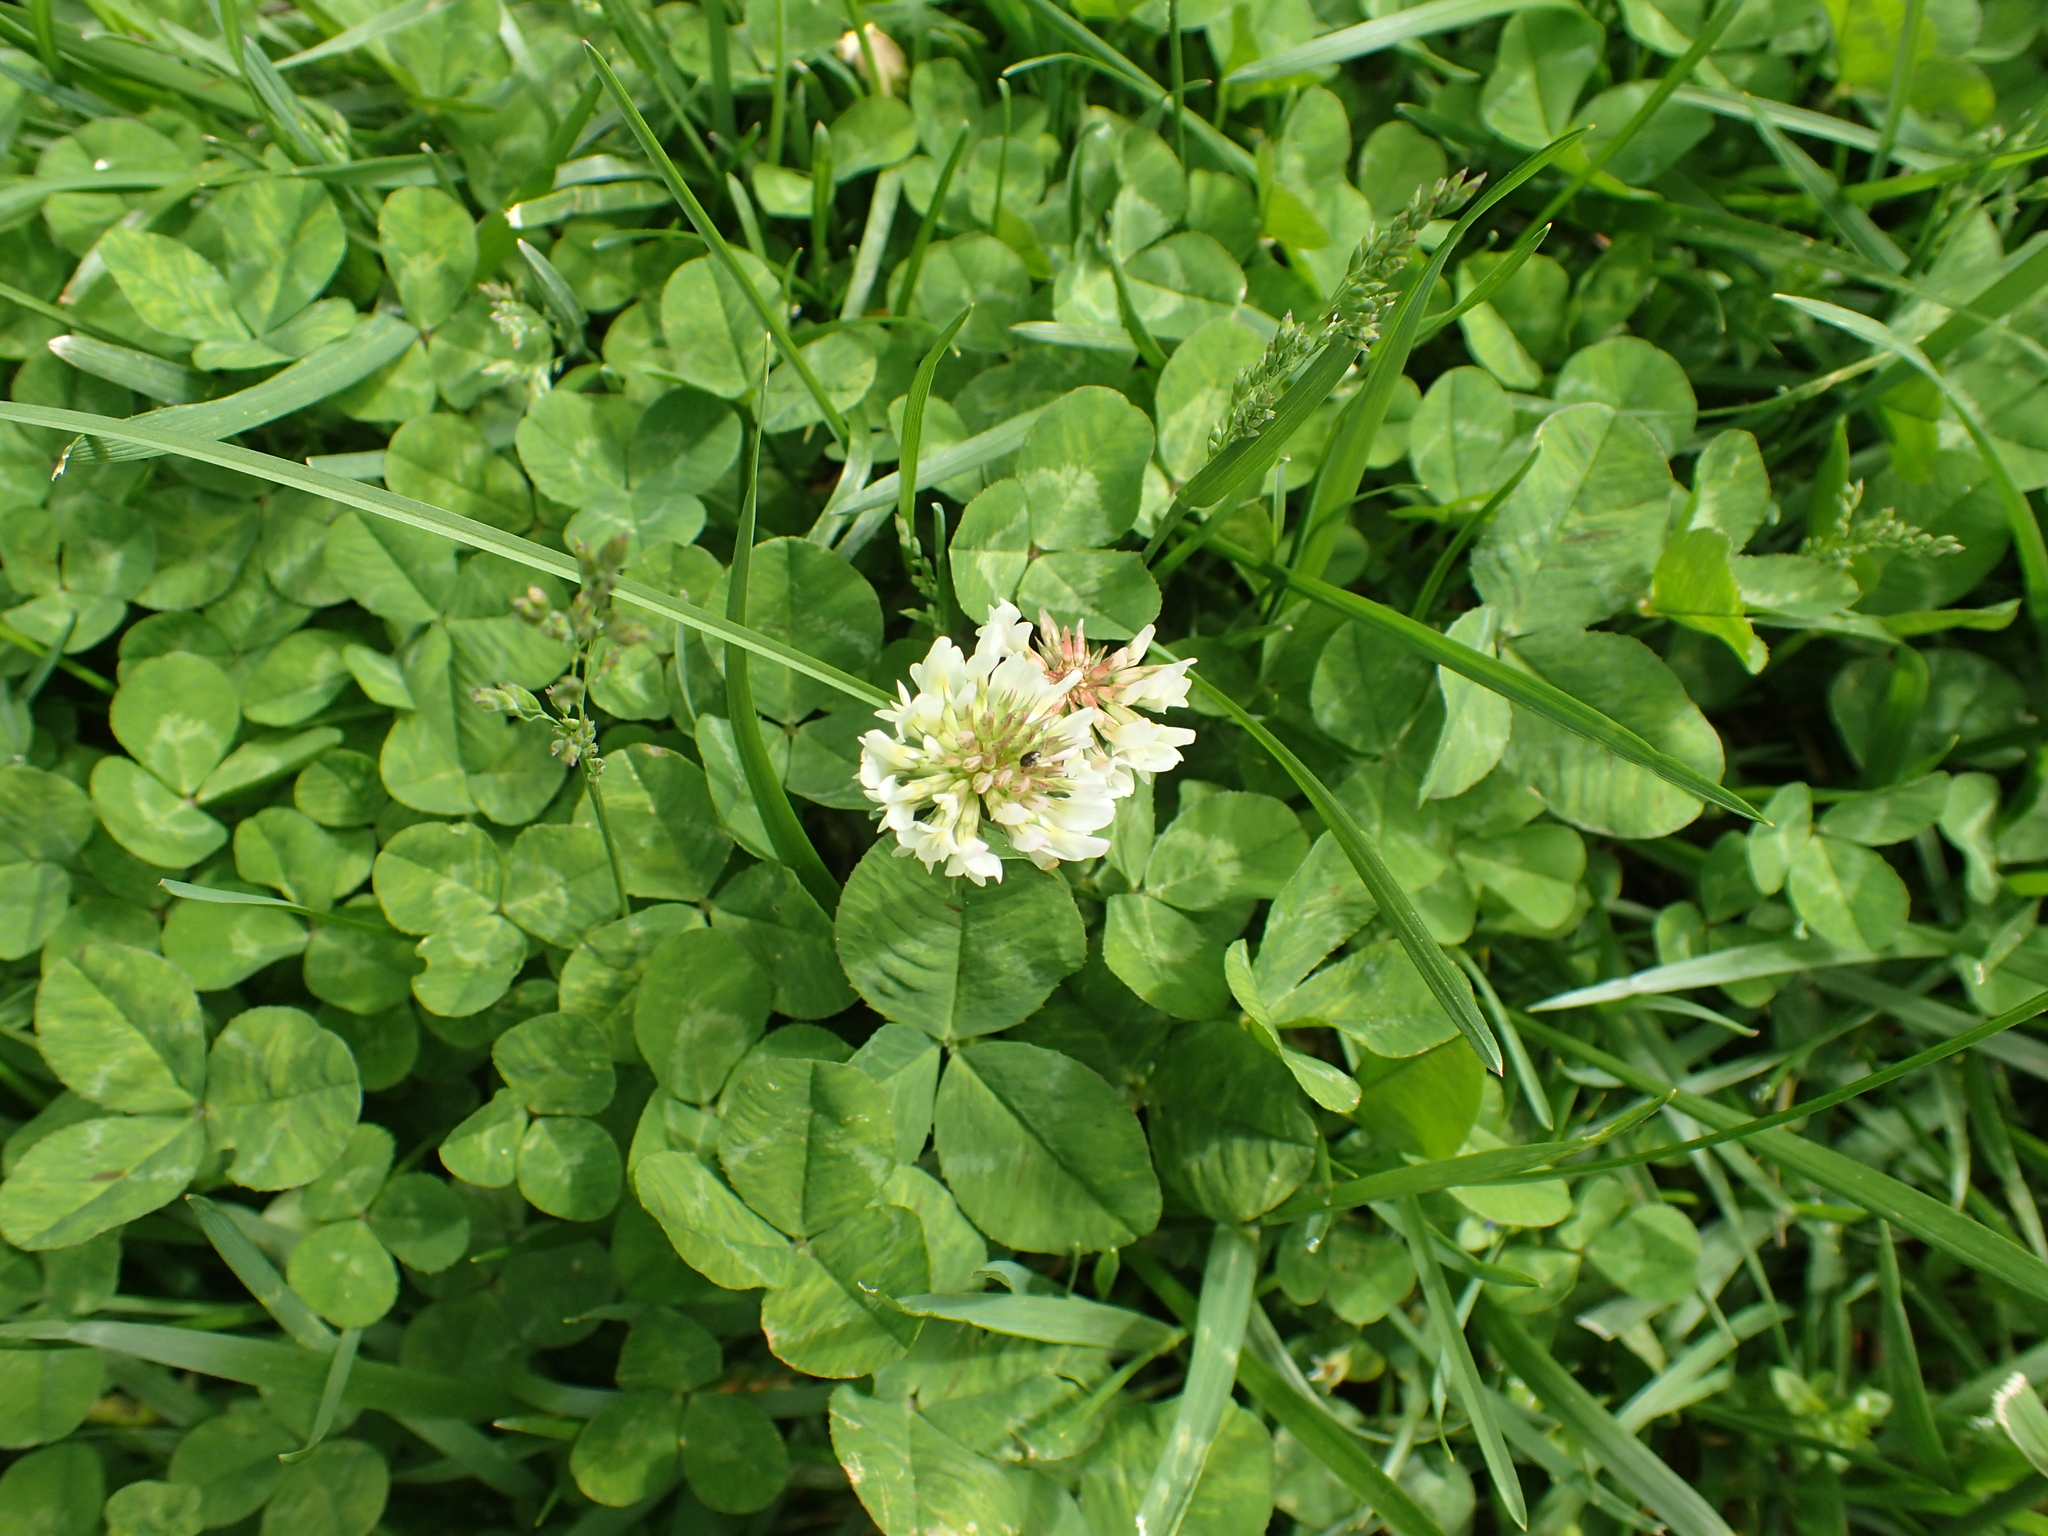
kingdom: Plantae
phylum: Tracheophyta
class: Magnoliopsida
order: Fabales
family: Fabaceae
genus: Trifolium
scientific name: Trifolium repens
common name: White clover
